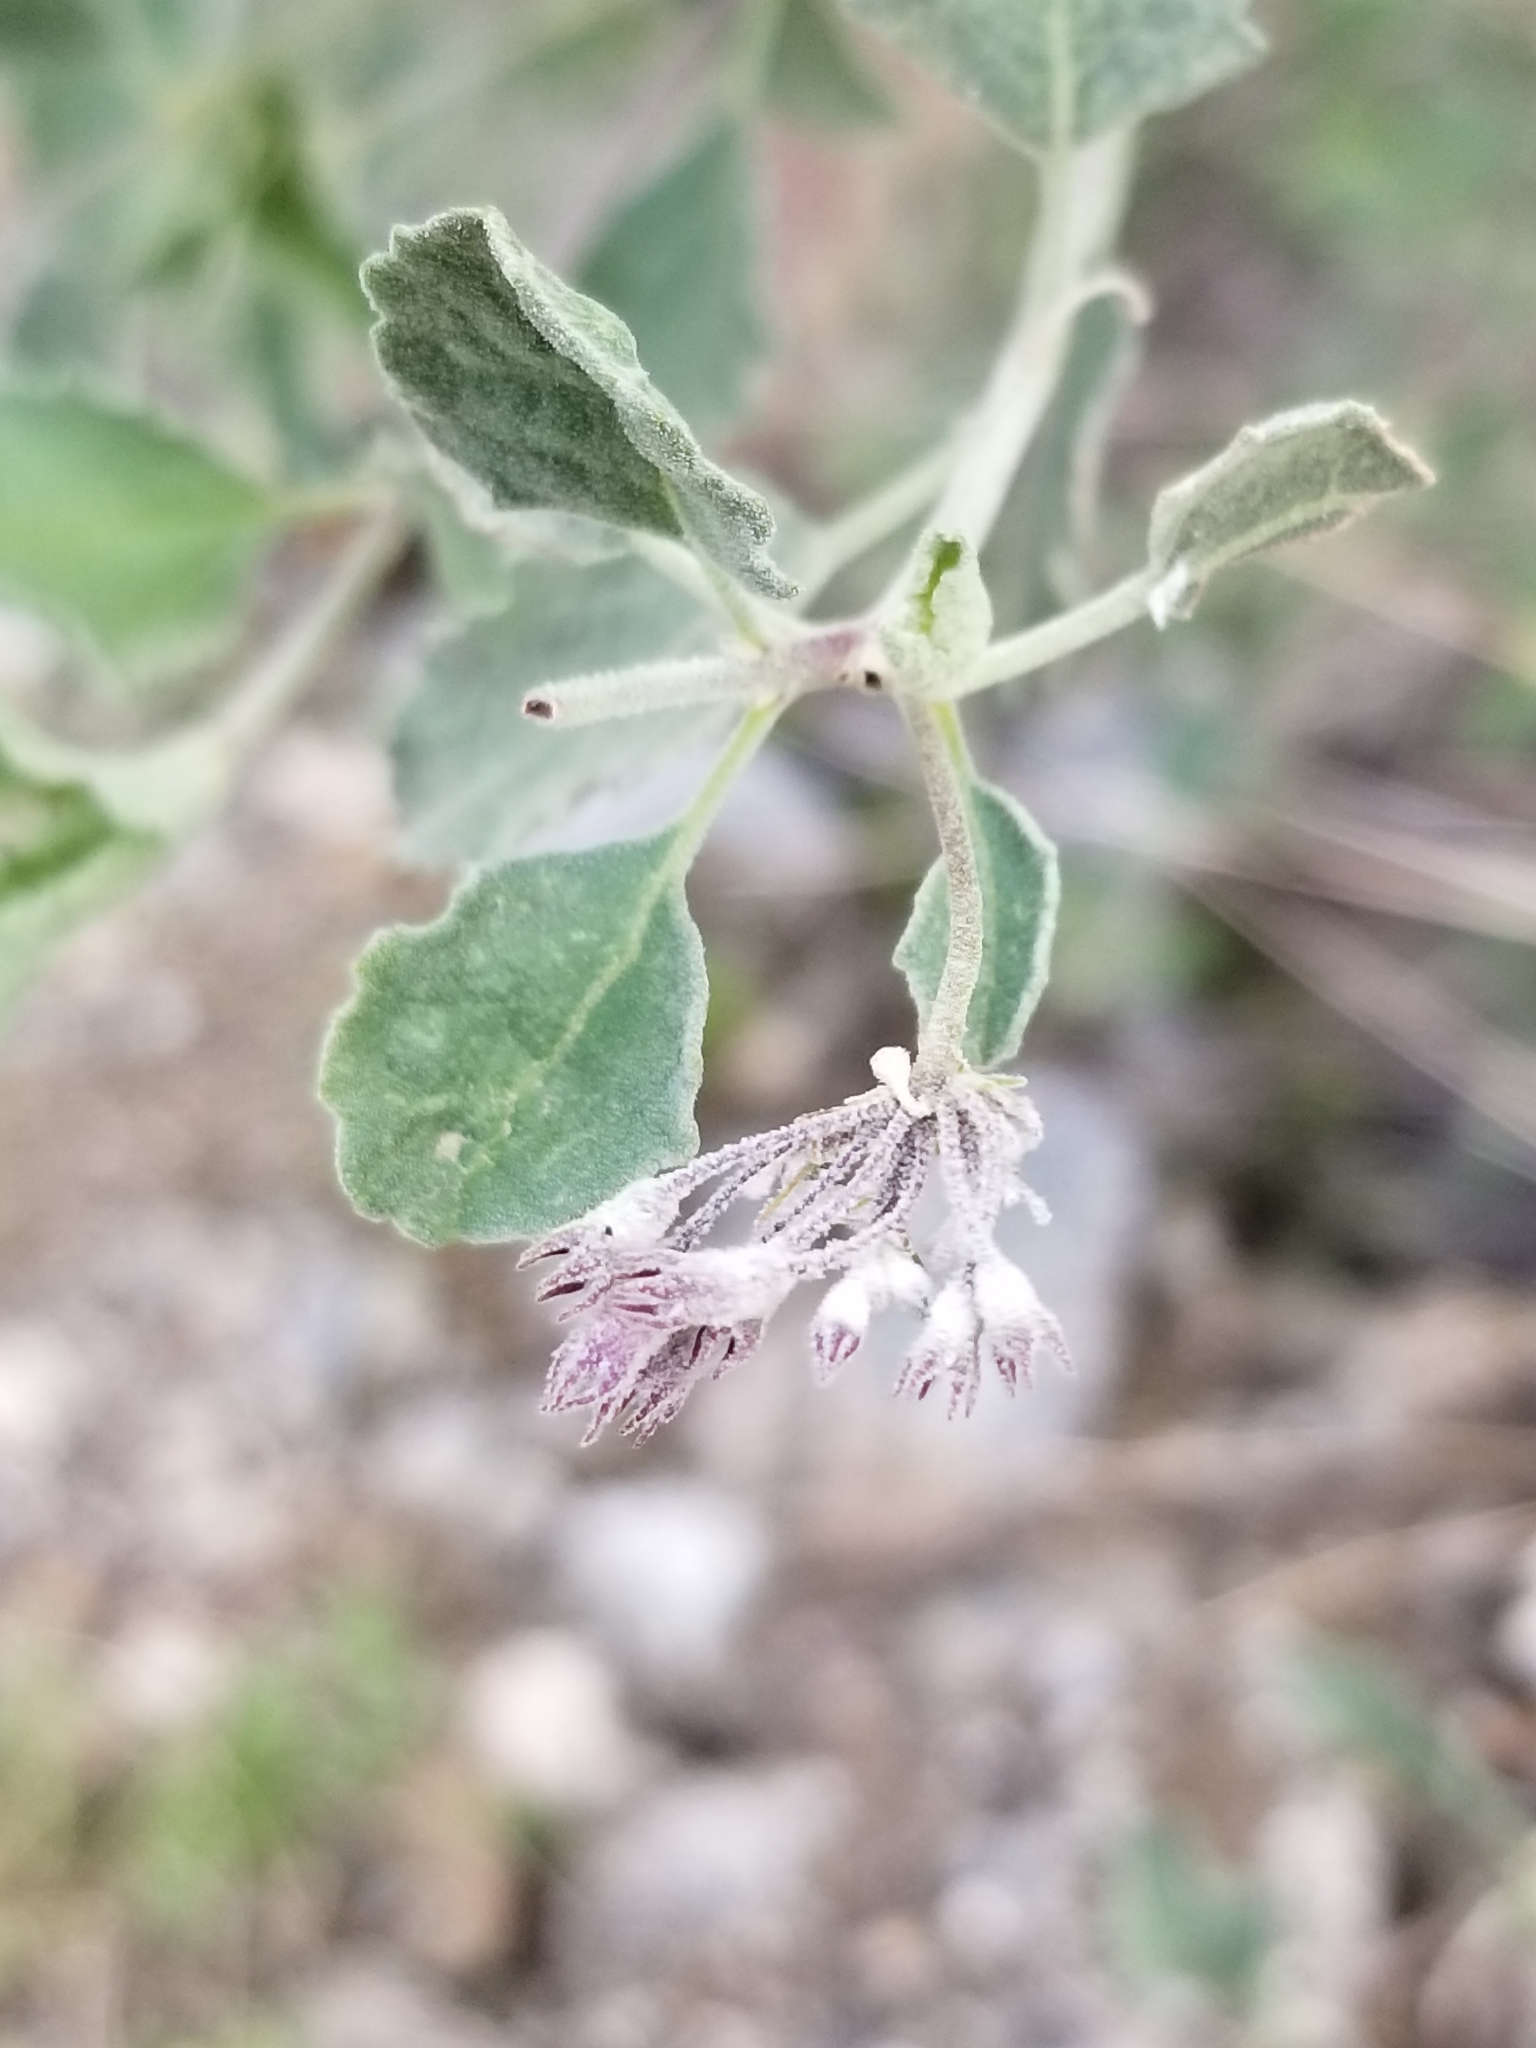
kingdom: Plantae
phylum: Tracheophyta
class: Magnoliopsida
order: Lamiales
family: Lamiaceae
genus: Condea
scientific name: Condea emoryi
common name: Chia
